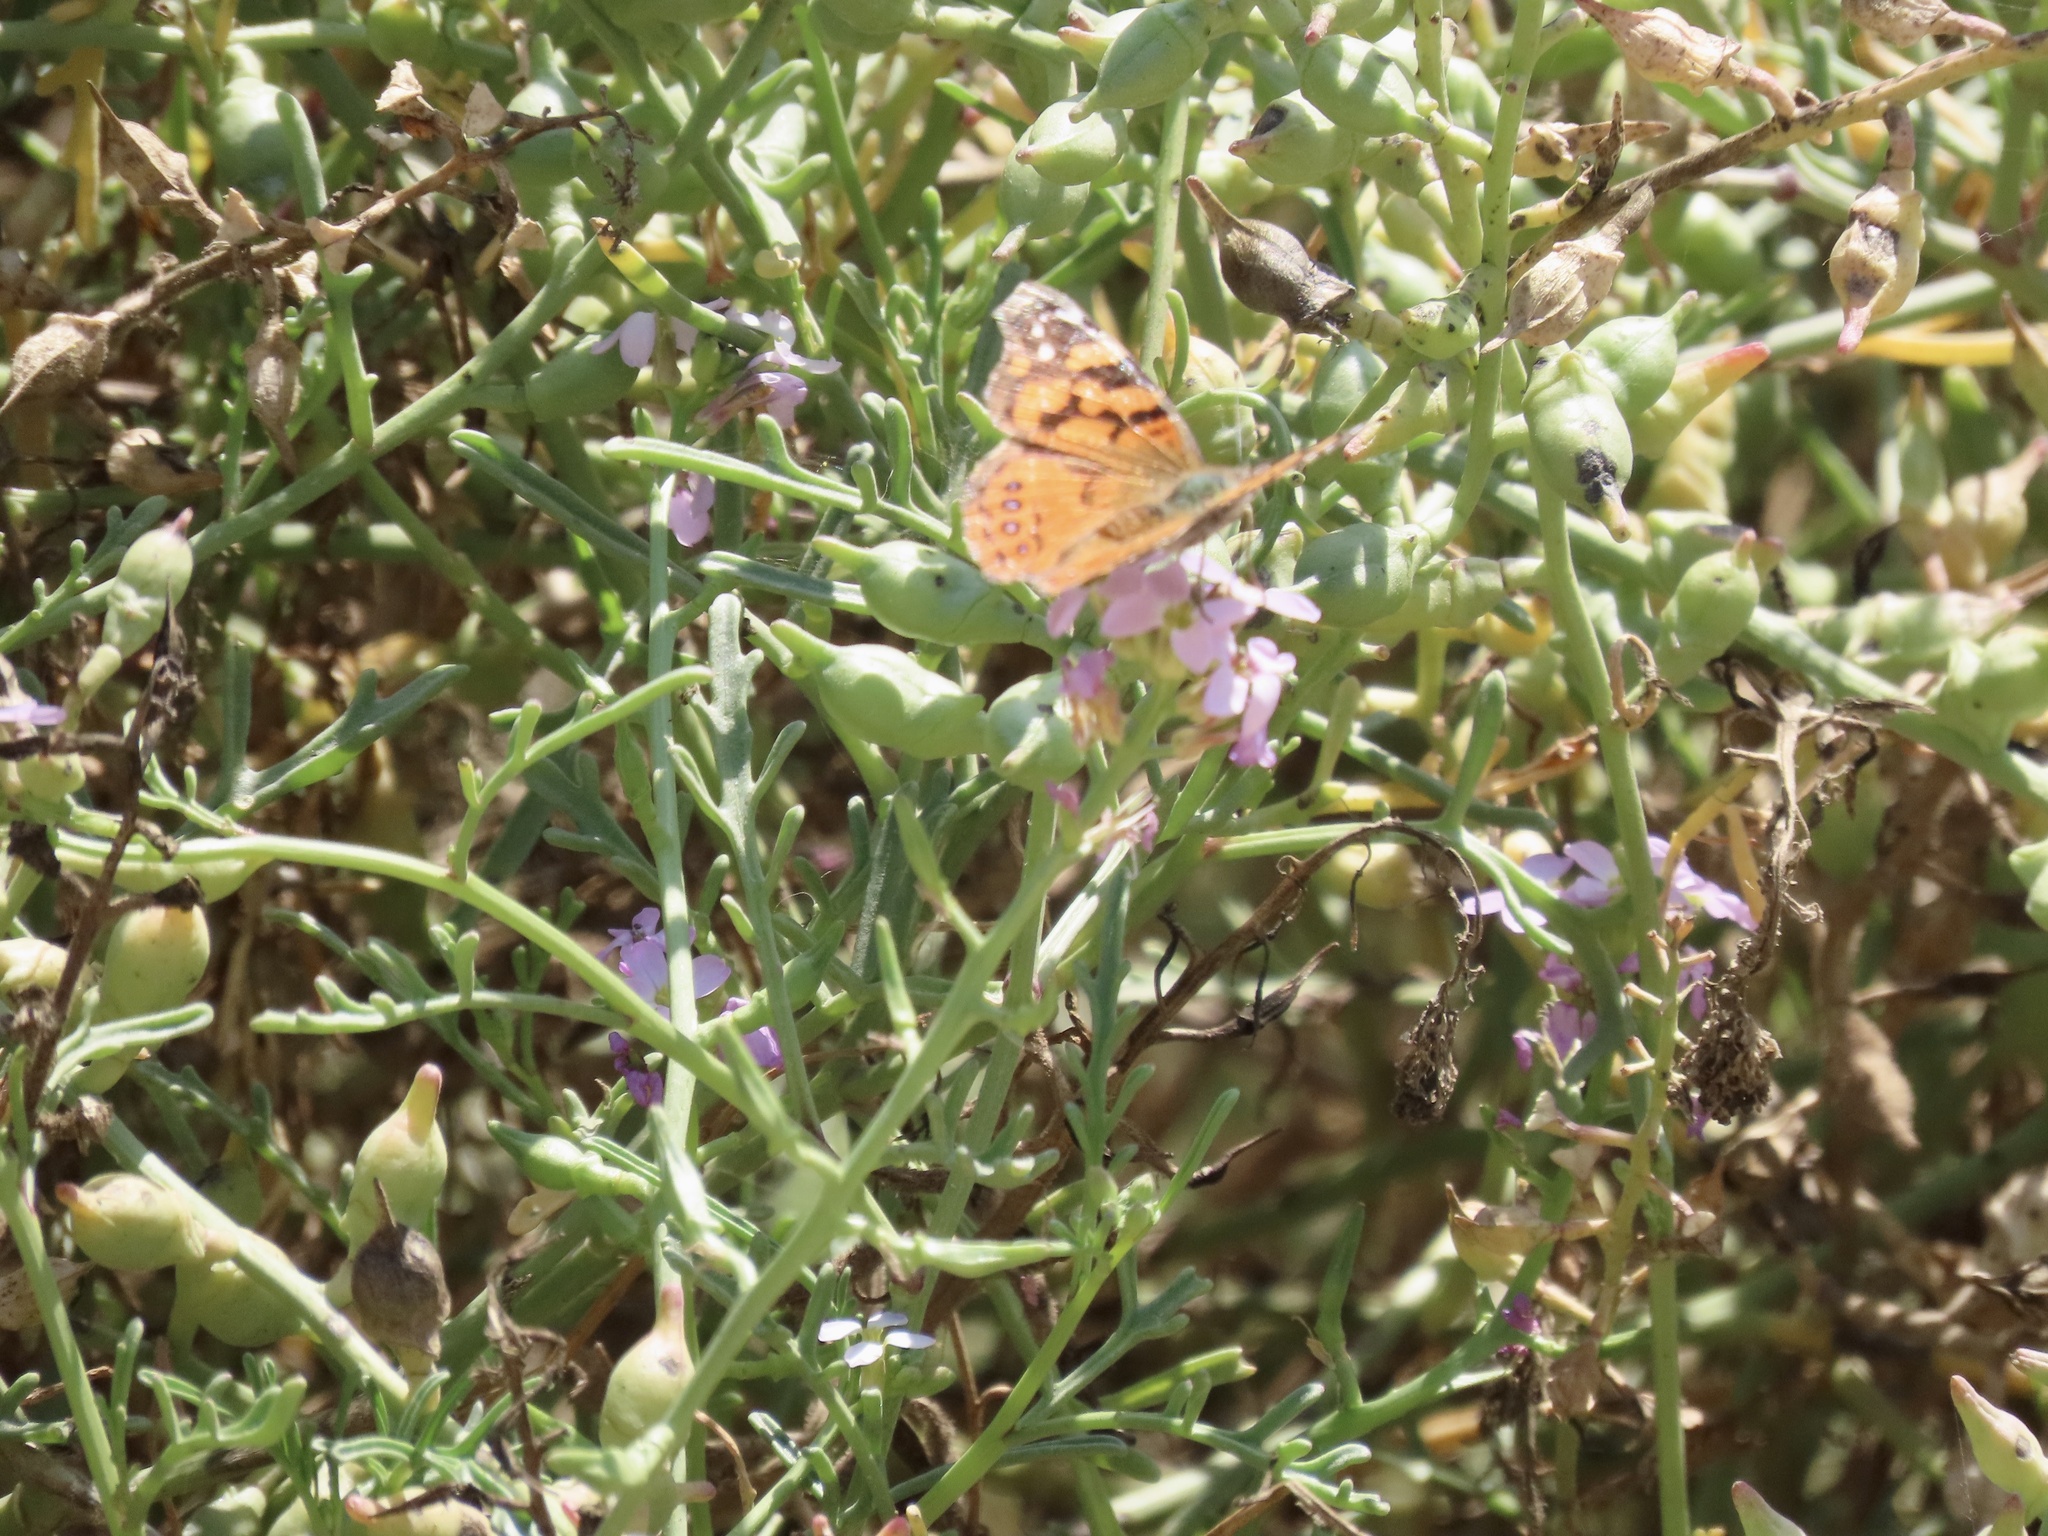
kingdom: Animalia
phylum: Arthropoda
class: Insecta
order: Lepidoptera
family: Nymphalidae
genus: Vanessa
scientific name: Vanessa annabella
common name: West coast lady
